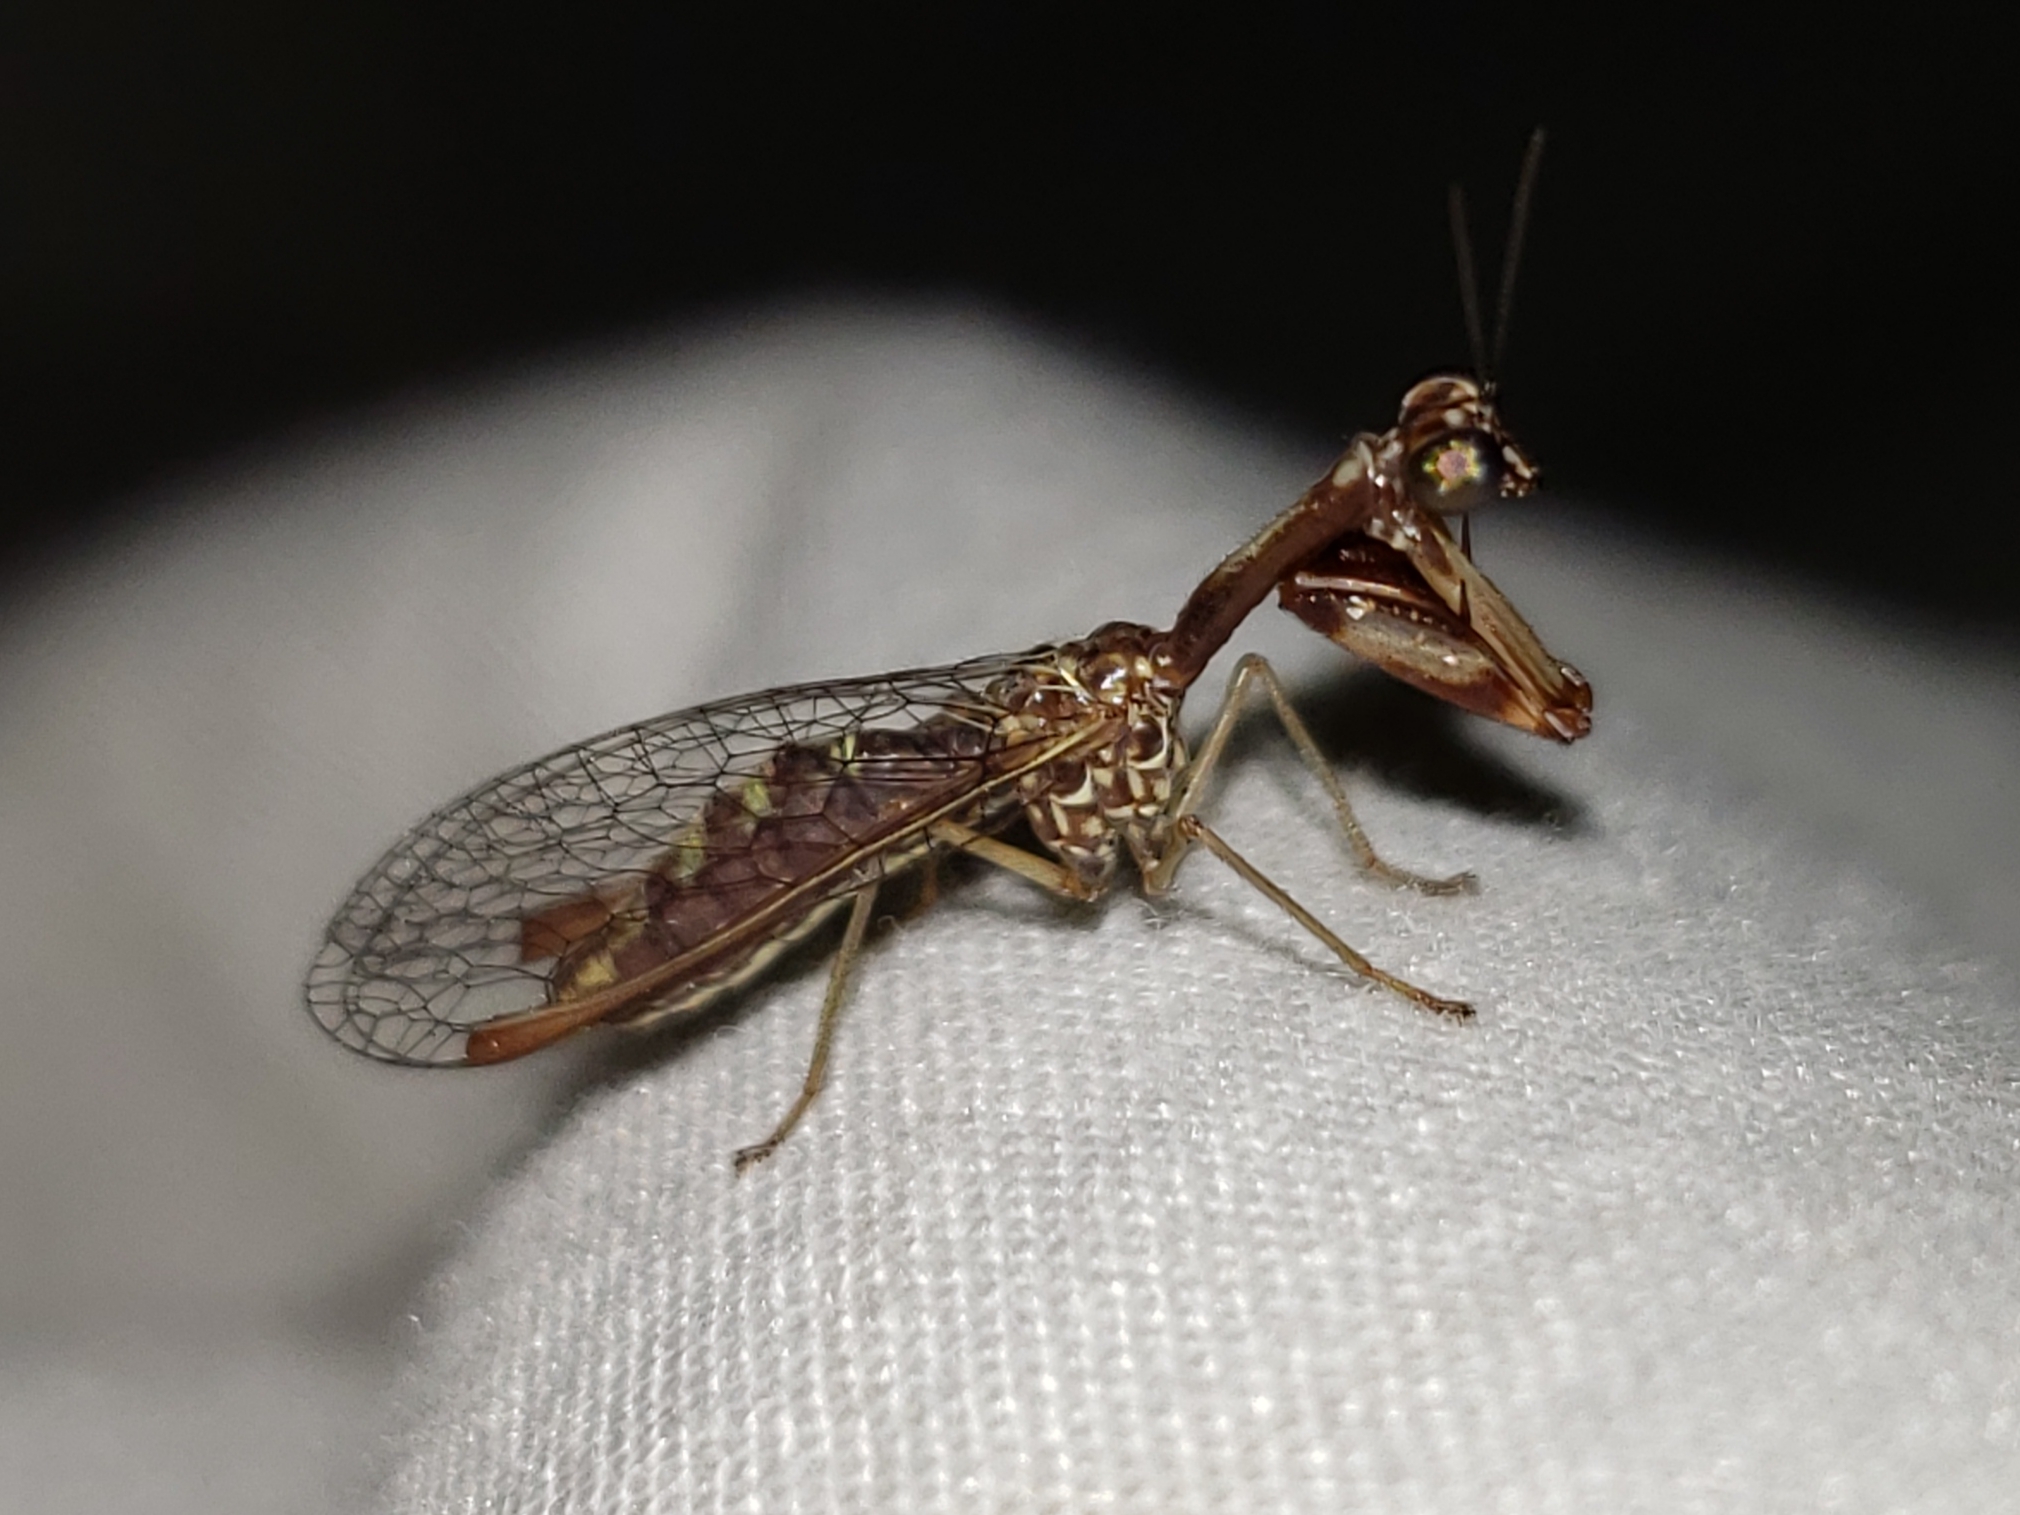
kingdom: Animalia
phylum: Arthropoda
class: Insecta
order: Neuroptera
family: Mantispidae
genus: Leptomantispa
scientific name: Leptomantispa pulchella
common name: Stevens's mantidfly
